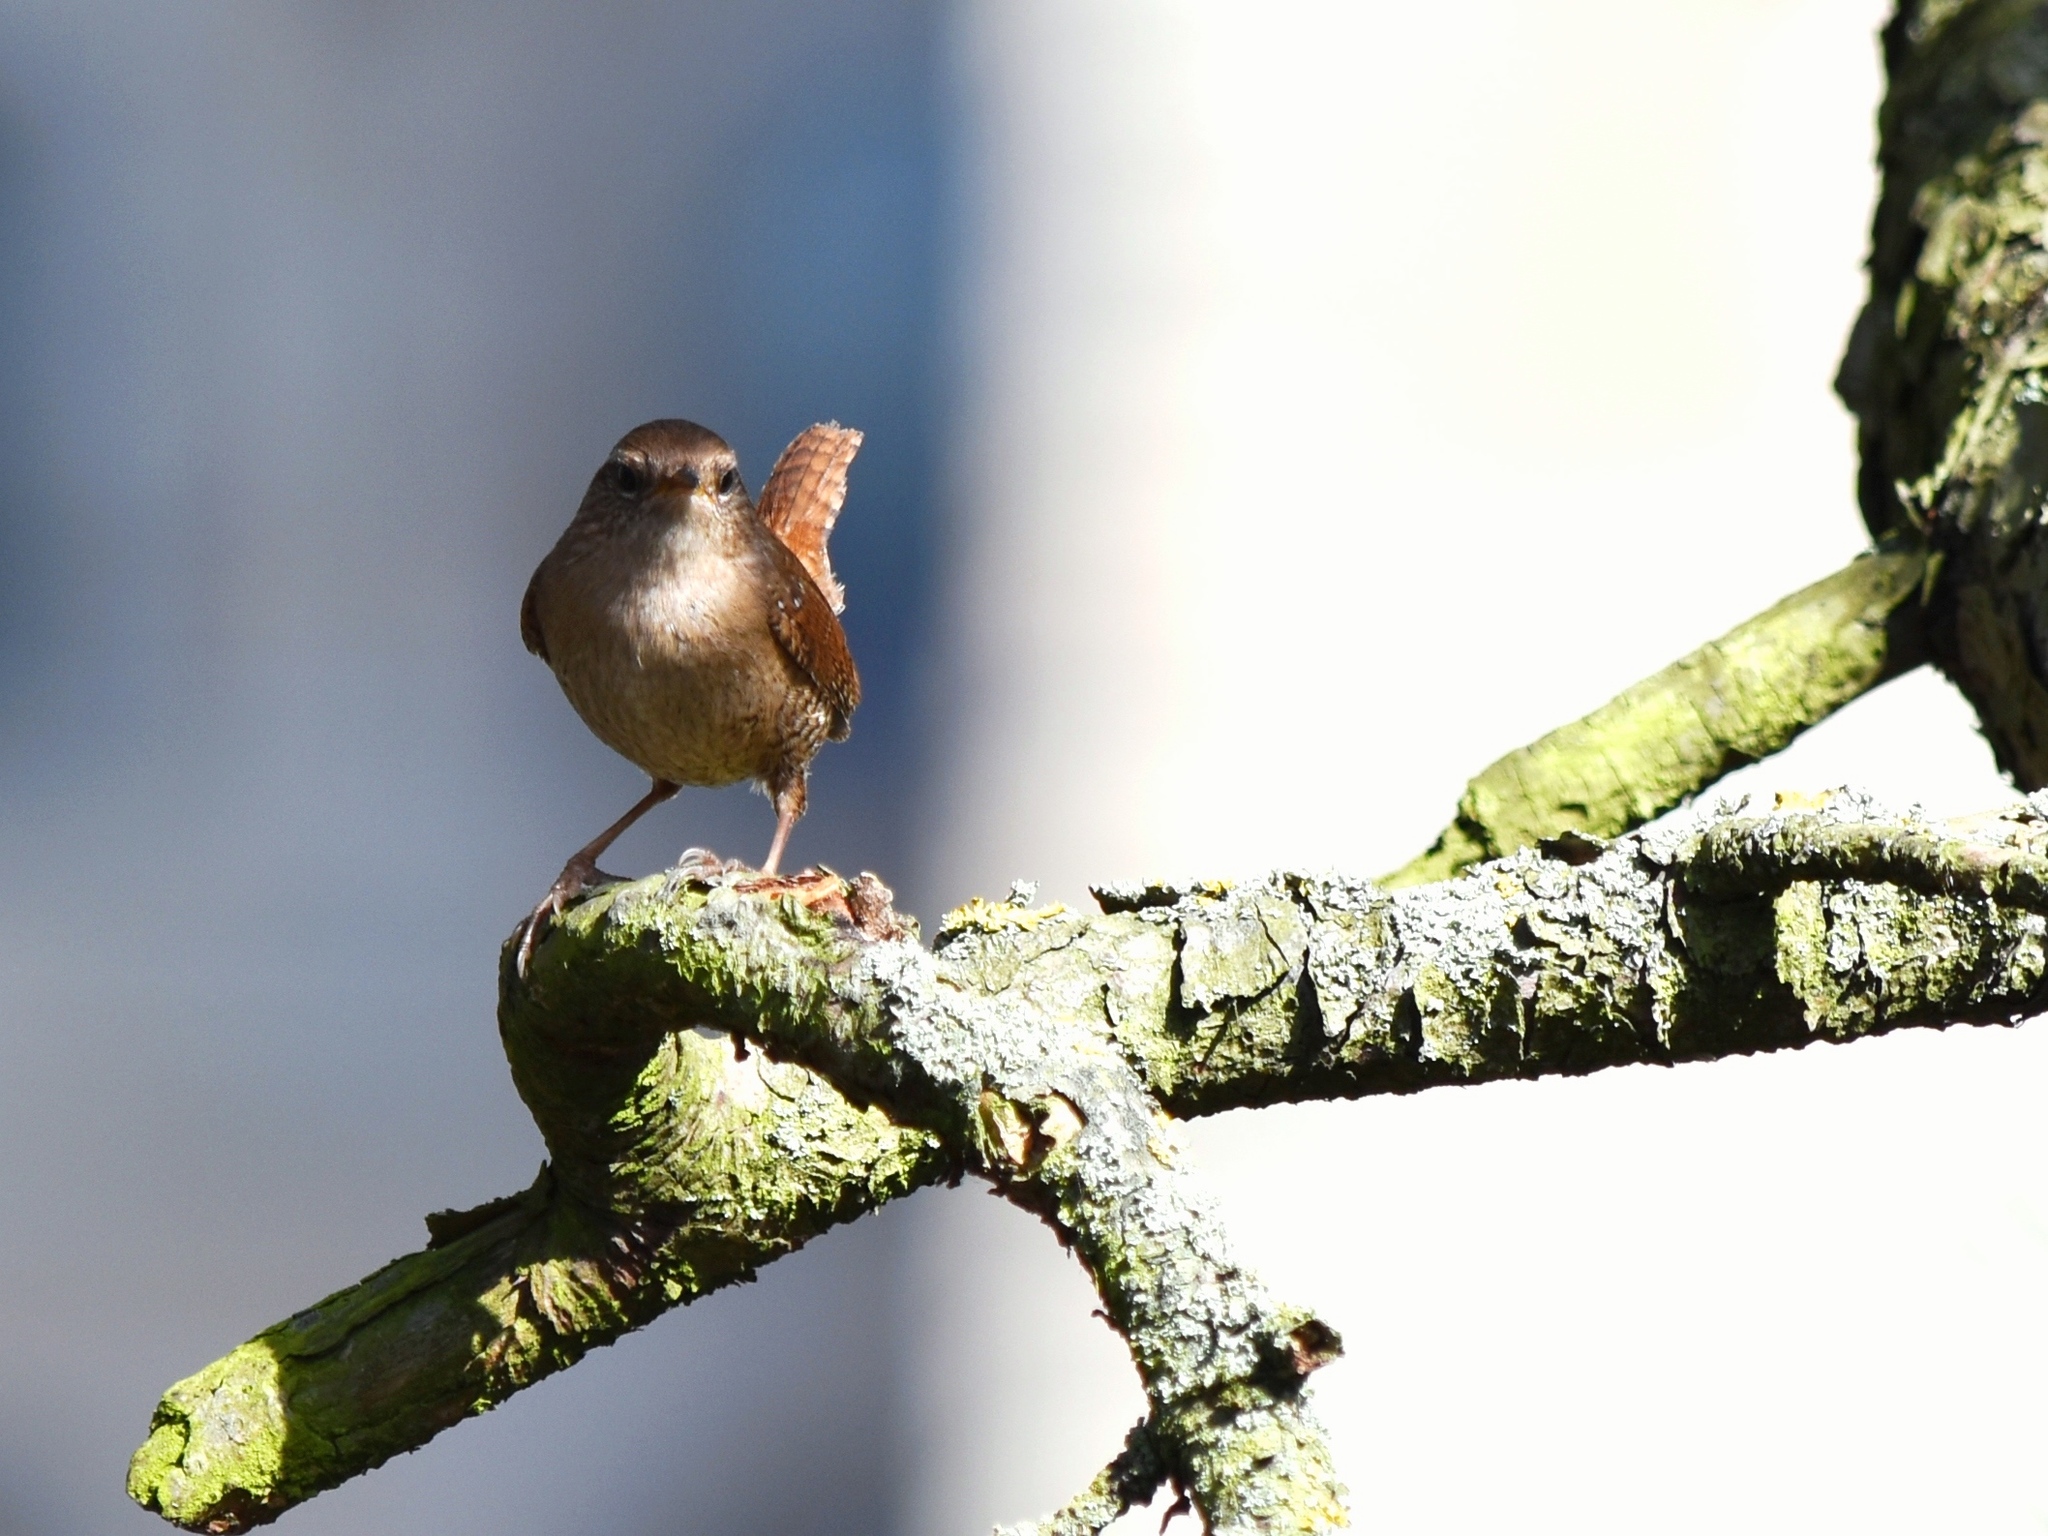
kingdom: Animalia
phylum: Chordata
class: Aves
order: Passeriformes
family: Troglodytidae
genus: Troglodytes
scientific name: Troglodytes troglodytes
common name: Eurasian wren
